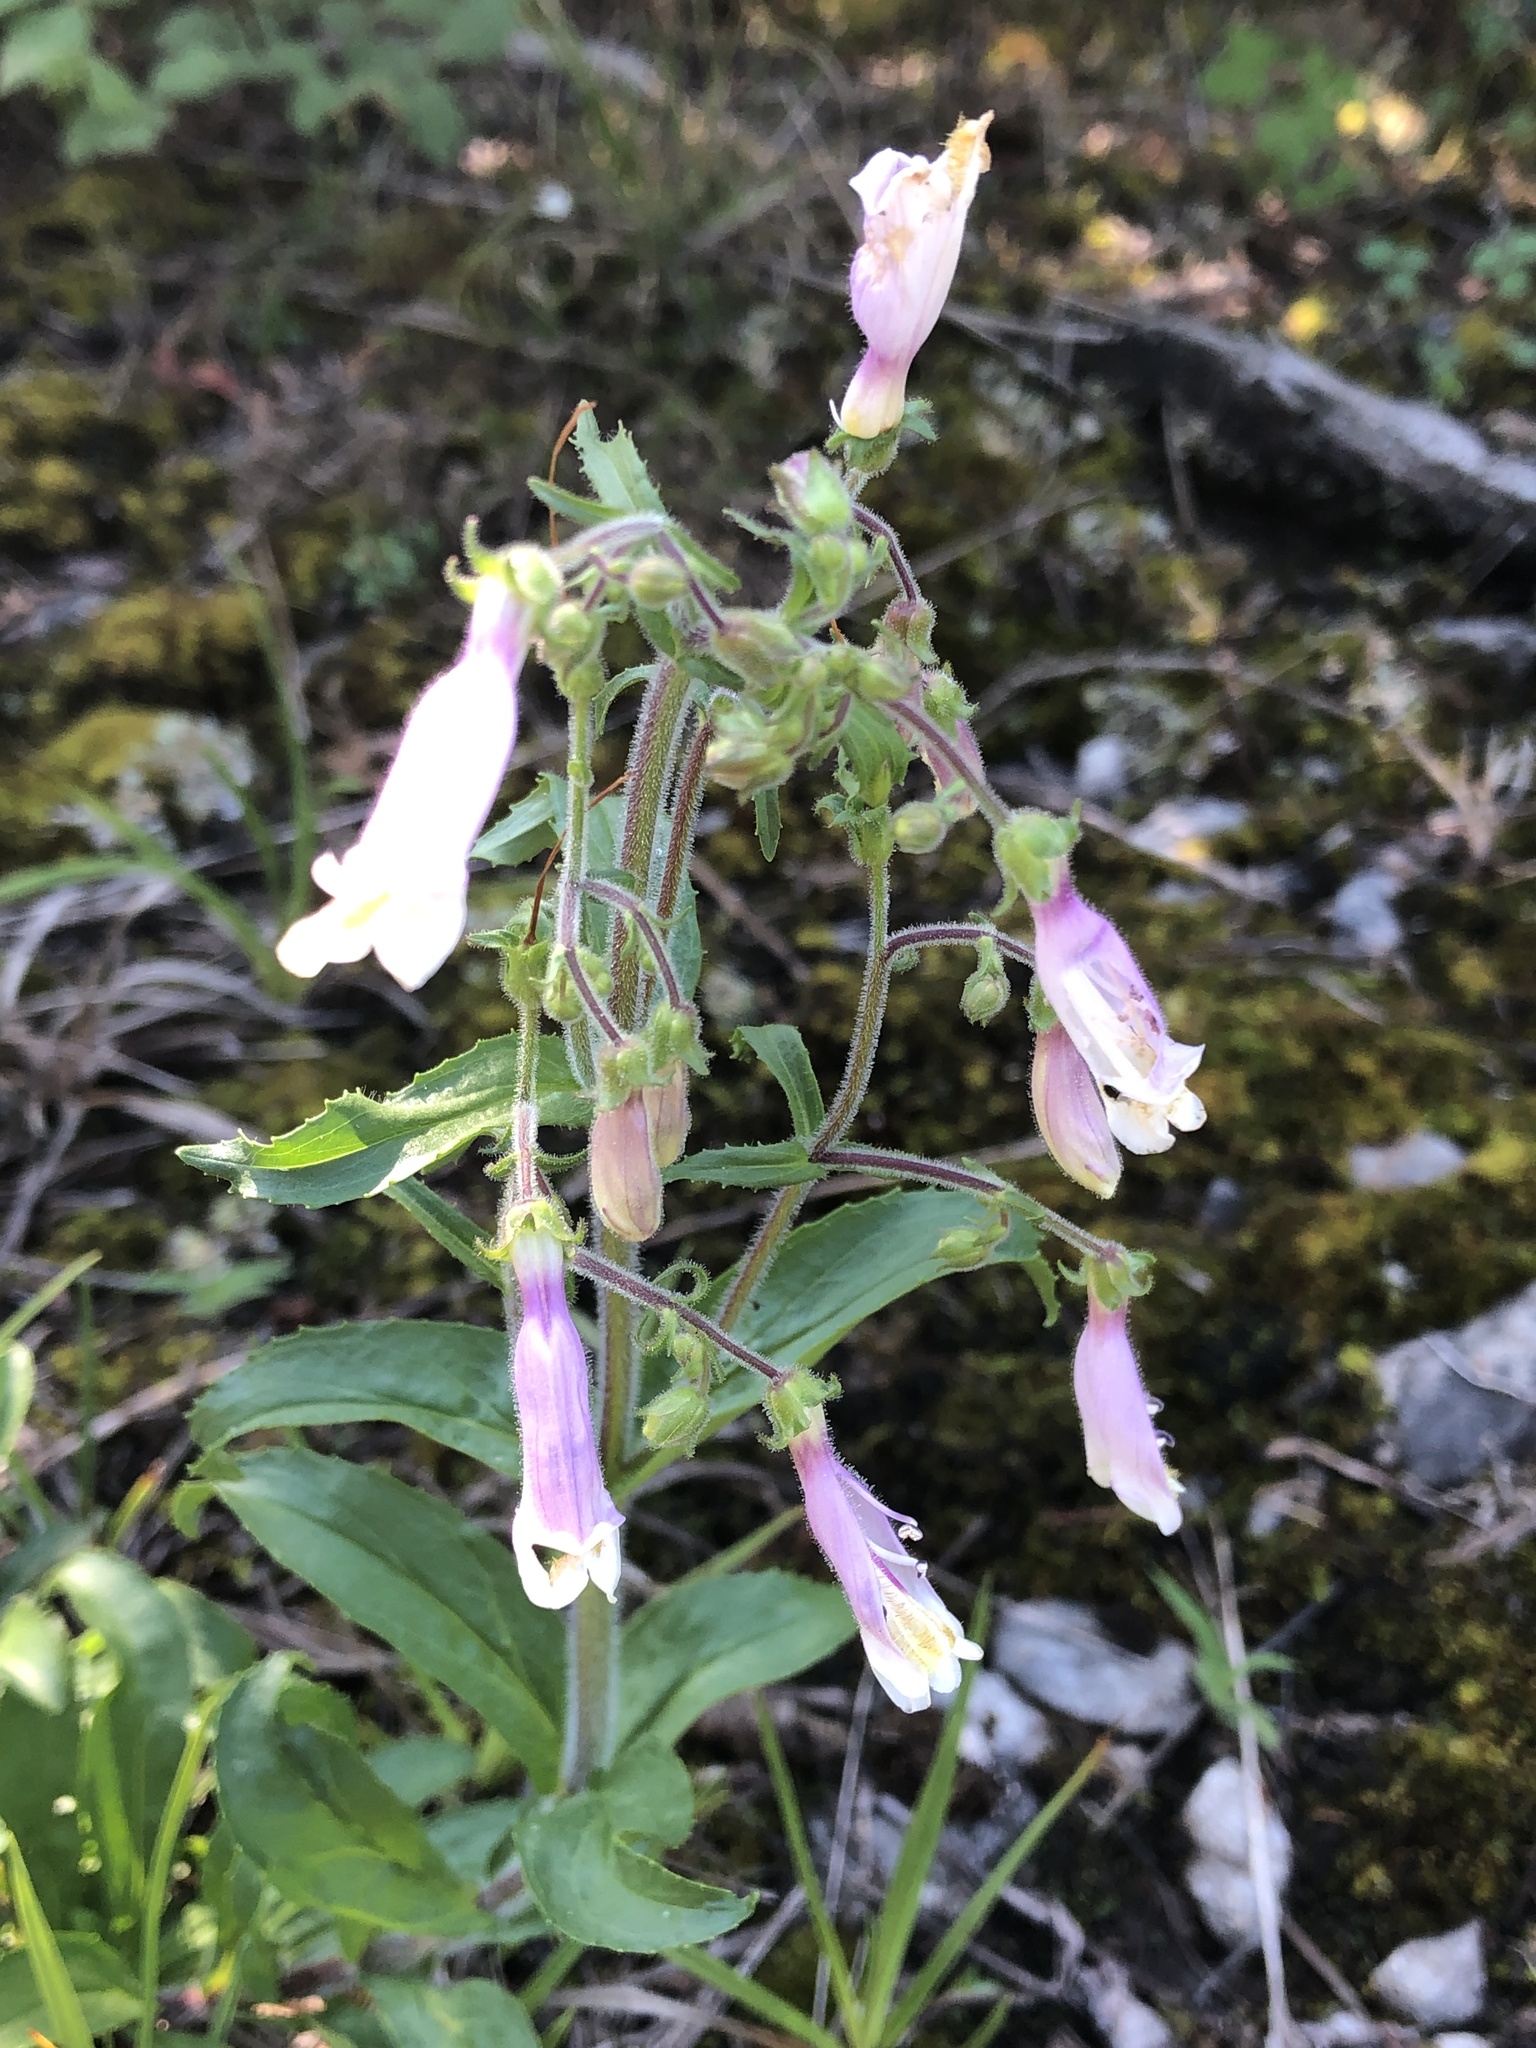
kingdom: Plantae
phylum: Tracheophyta
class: Magnoliopsida
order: Lamiales
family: Plantaginaceae
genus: Penstemon
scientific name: Penstemon hirsutus
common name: Hairy beardtongue
